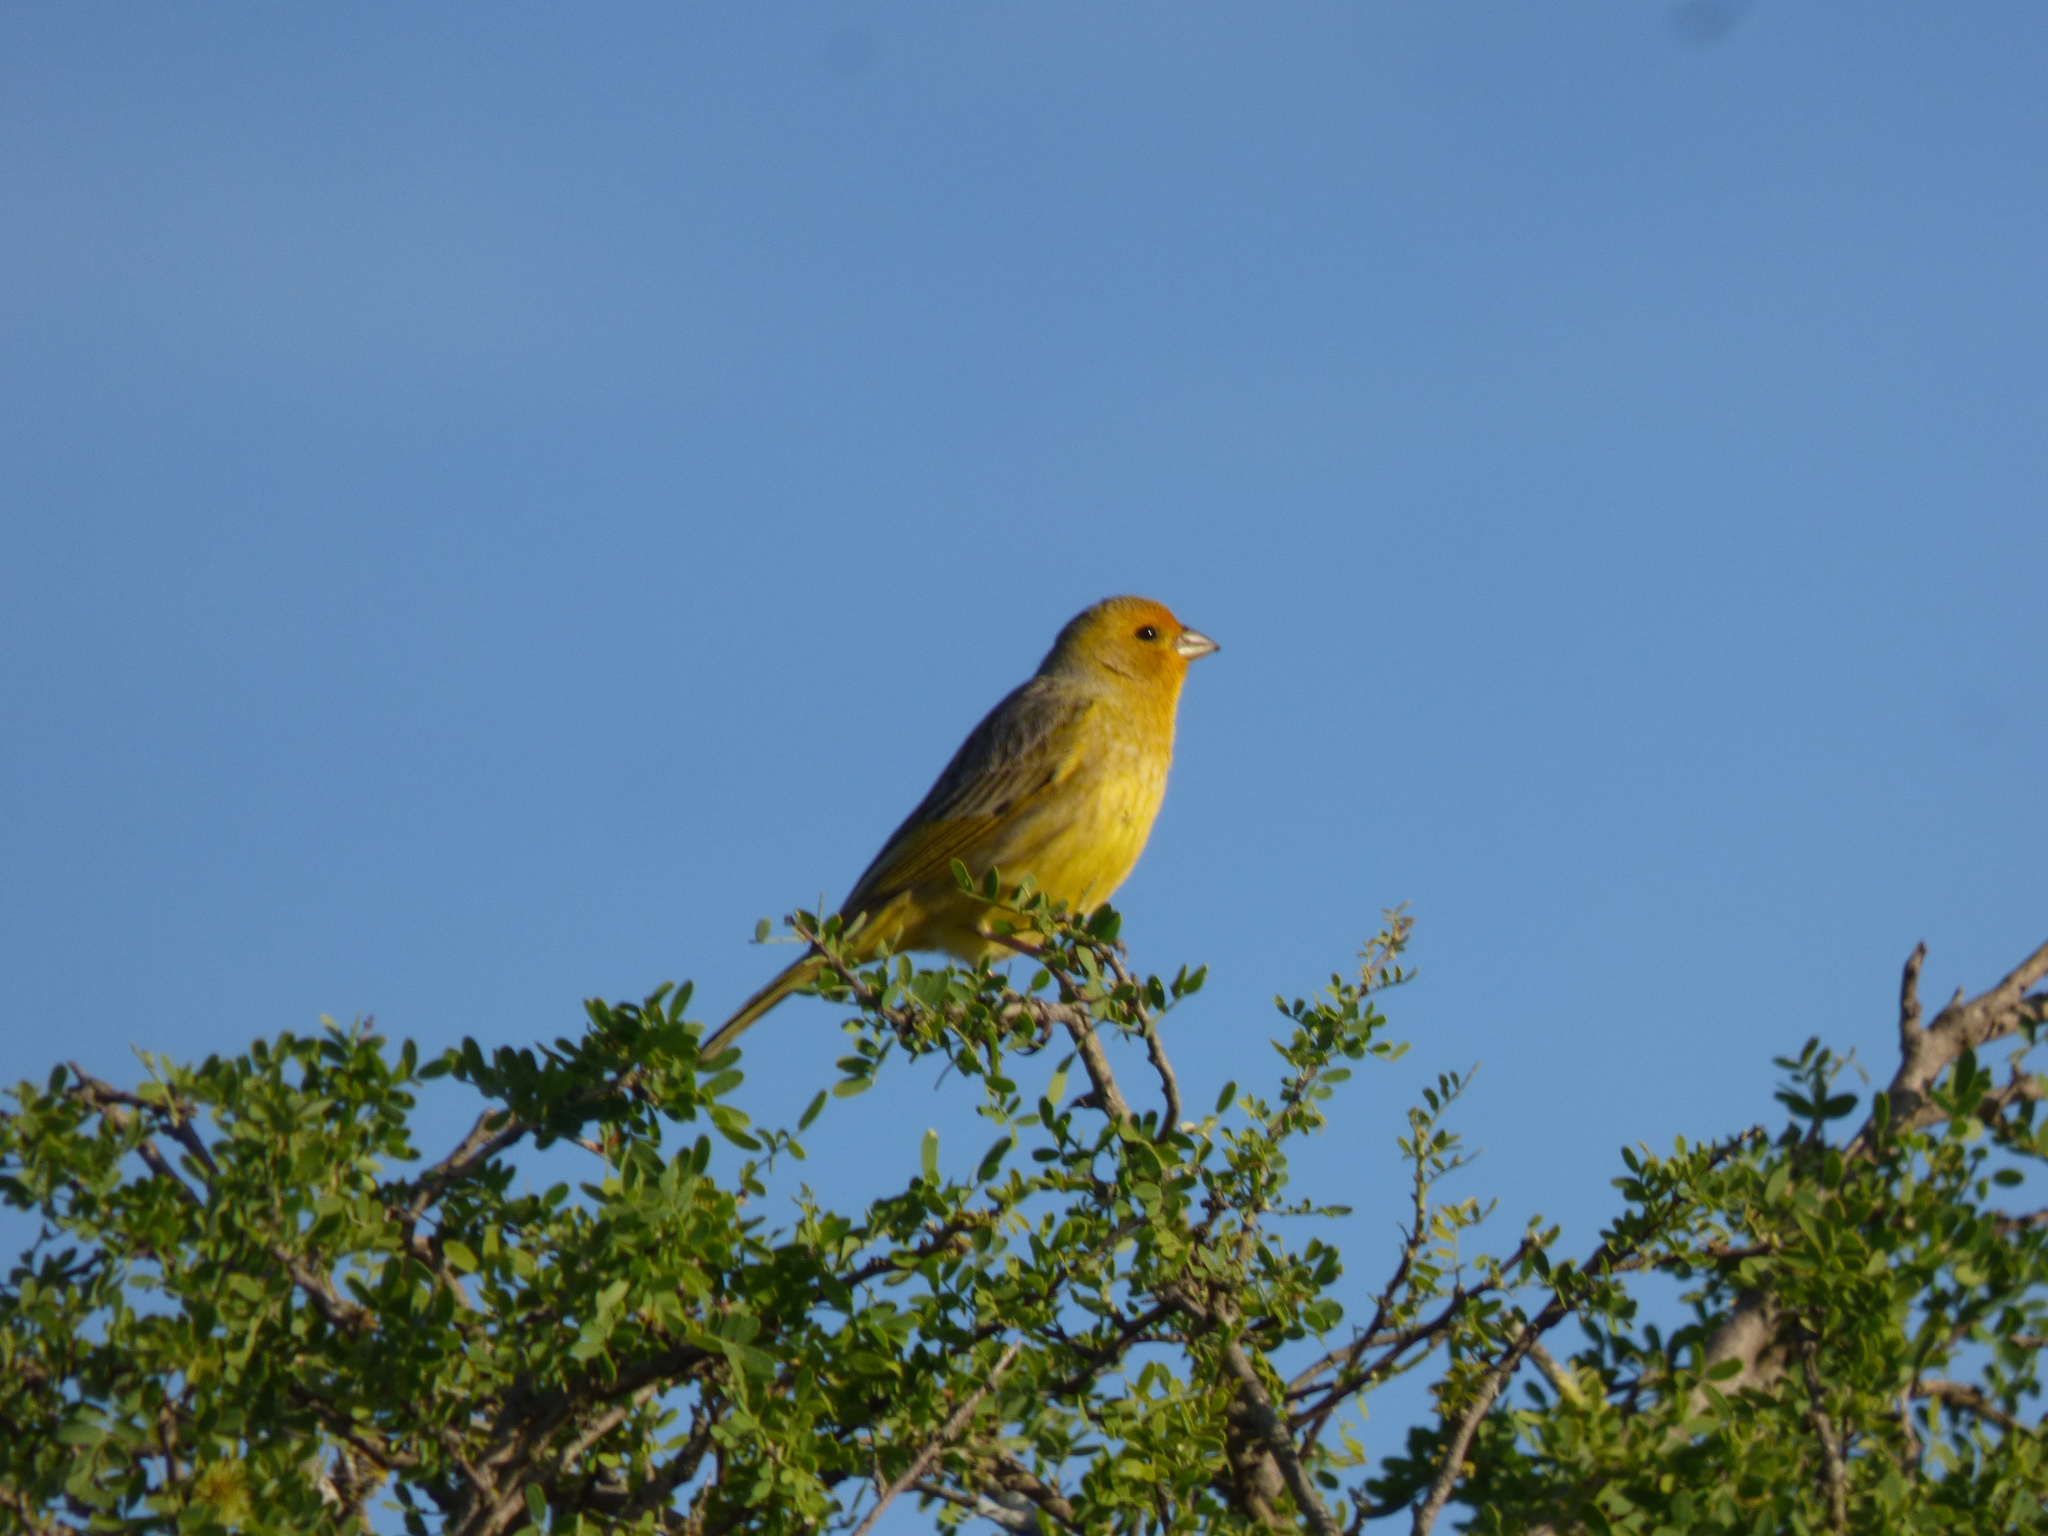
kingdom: Animalia
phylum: Chordata
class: Aves
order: Passeriformes
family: Thraupidae
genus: Sicalis
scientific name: Sicalis flaveola
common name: Saffron finch
